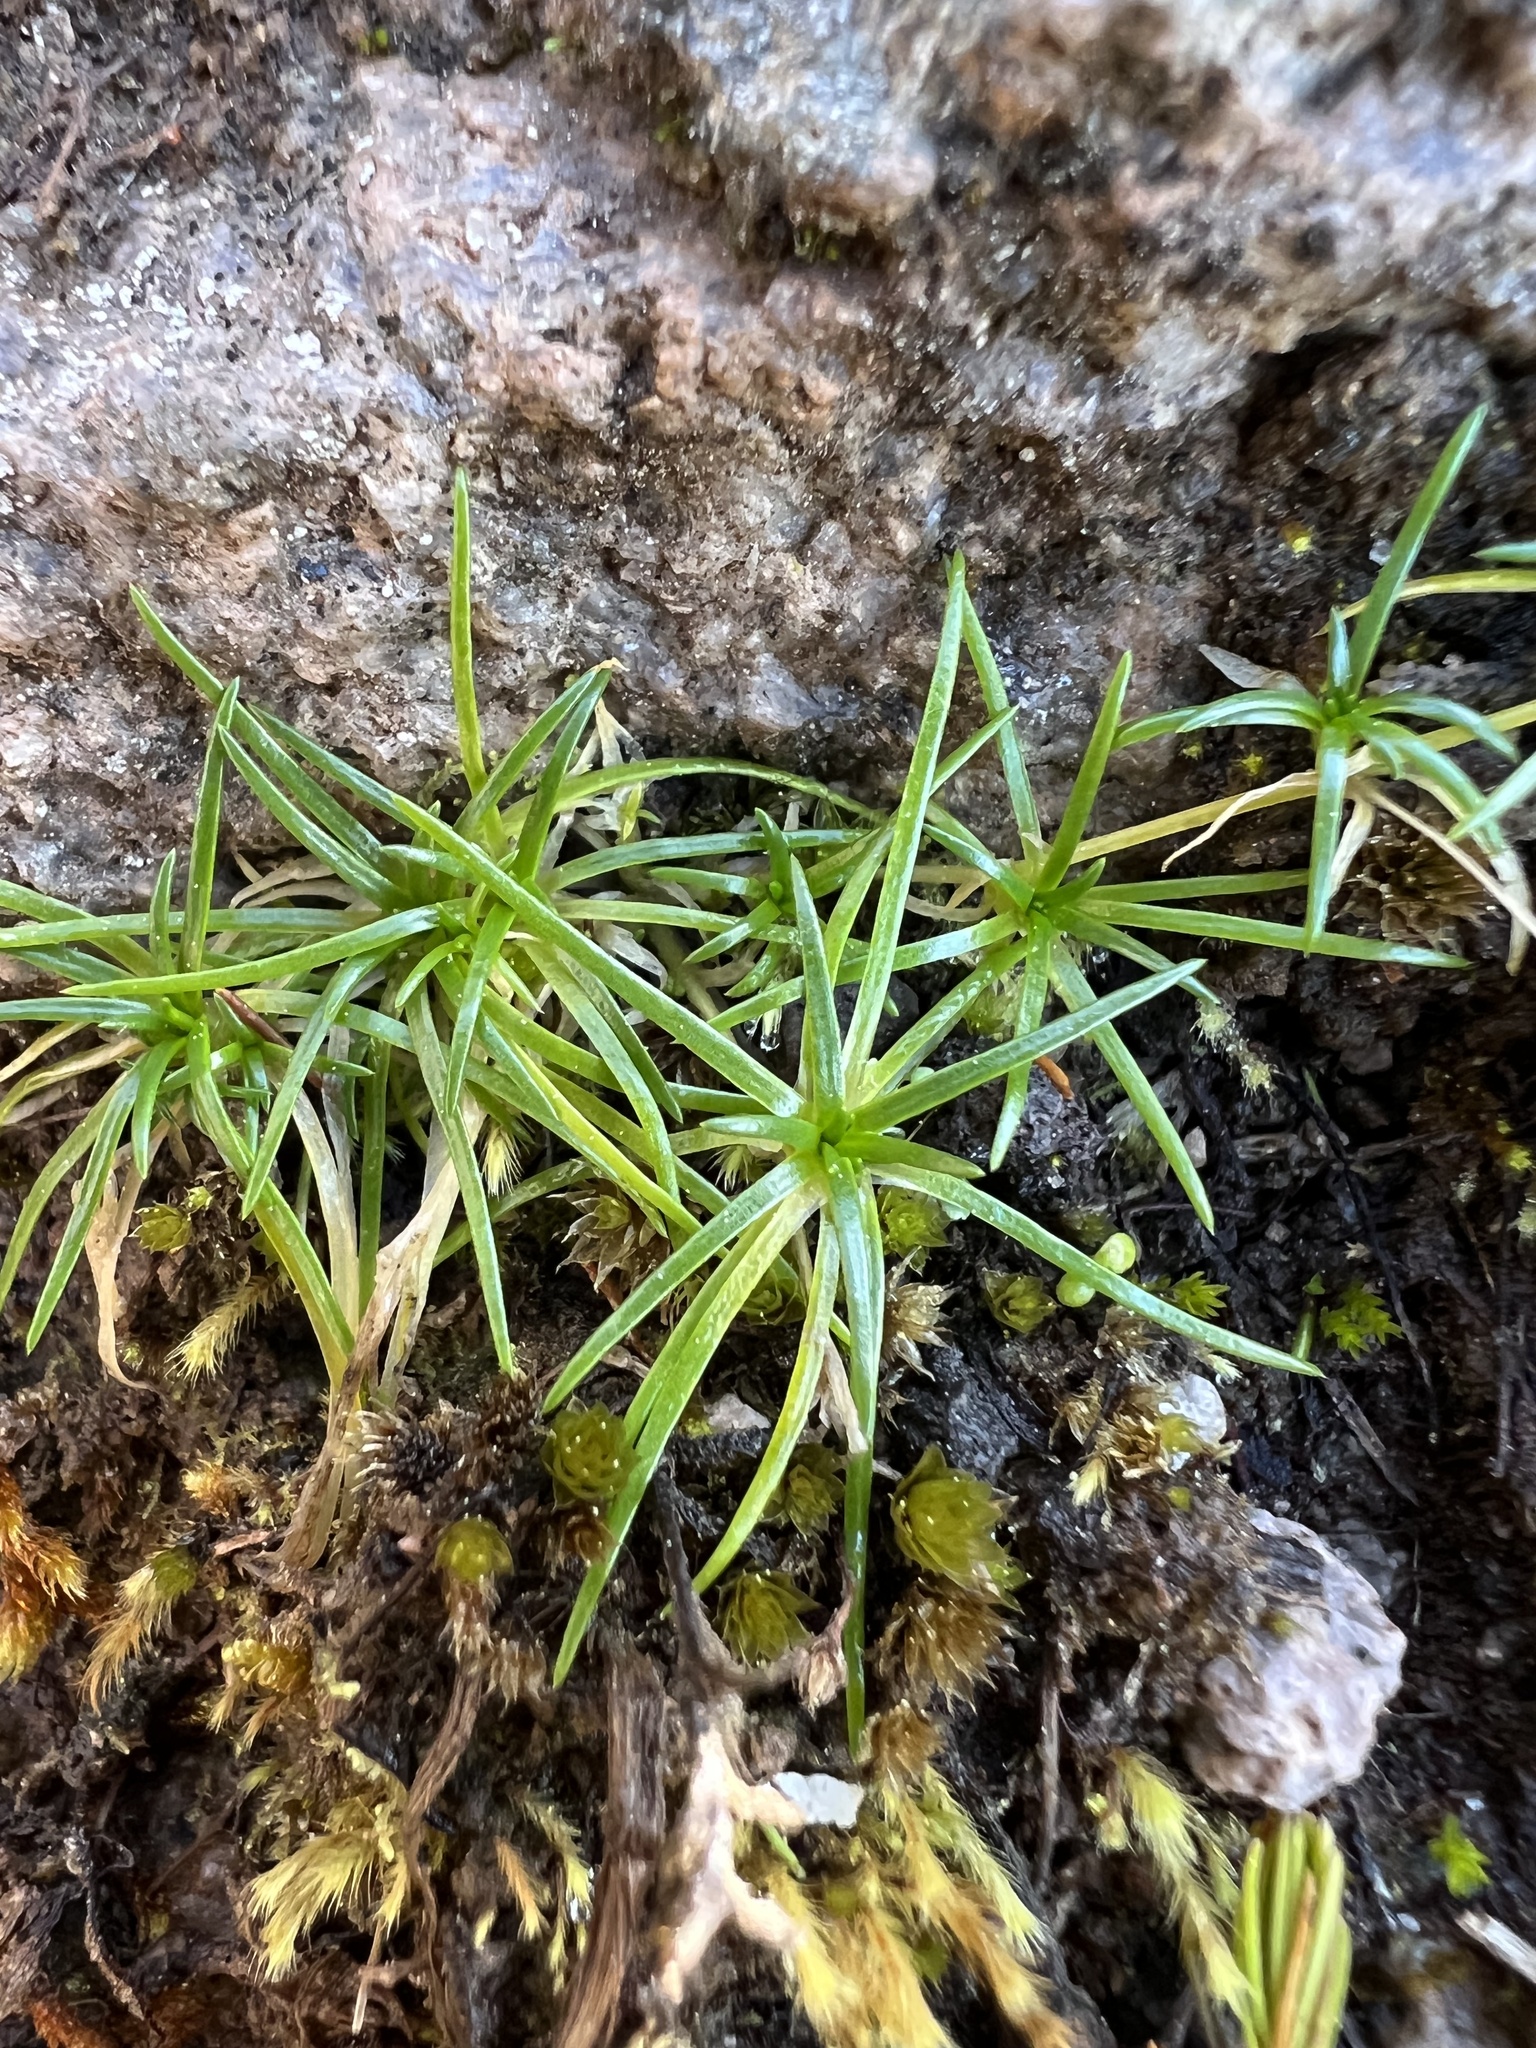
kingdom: Plantae
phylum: Tracheophyta
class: Magnoliopsida
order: Caryophyllales
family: Caryophyllaceae
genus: Sagina
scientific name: Sagina procumbens
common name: Procumbent pearlwort
